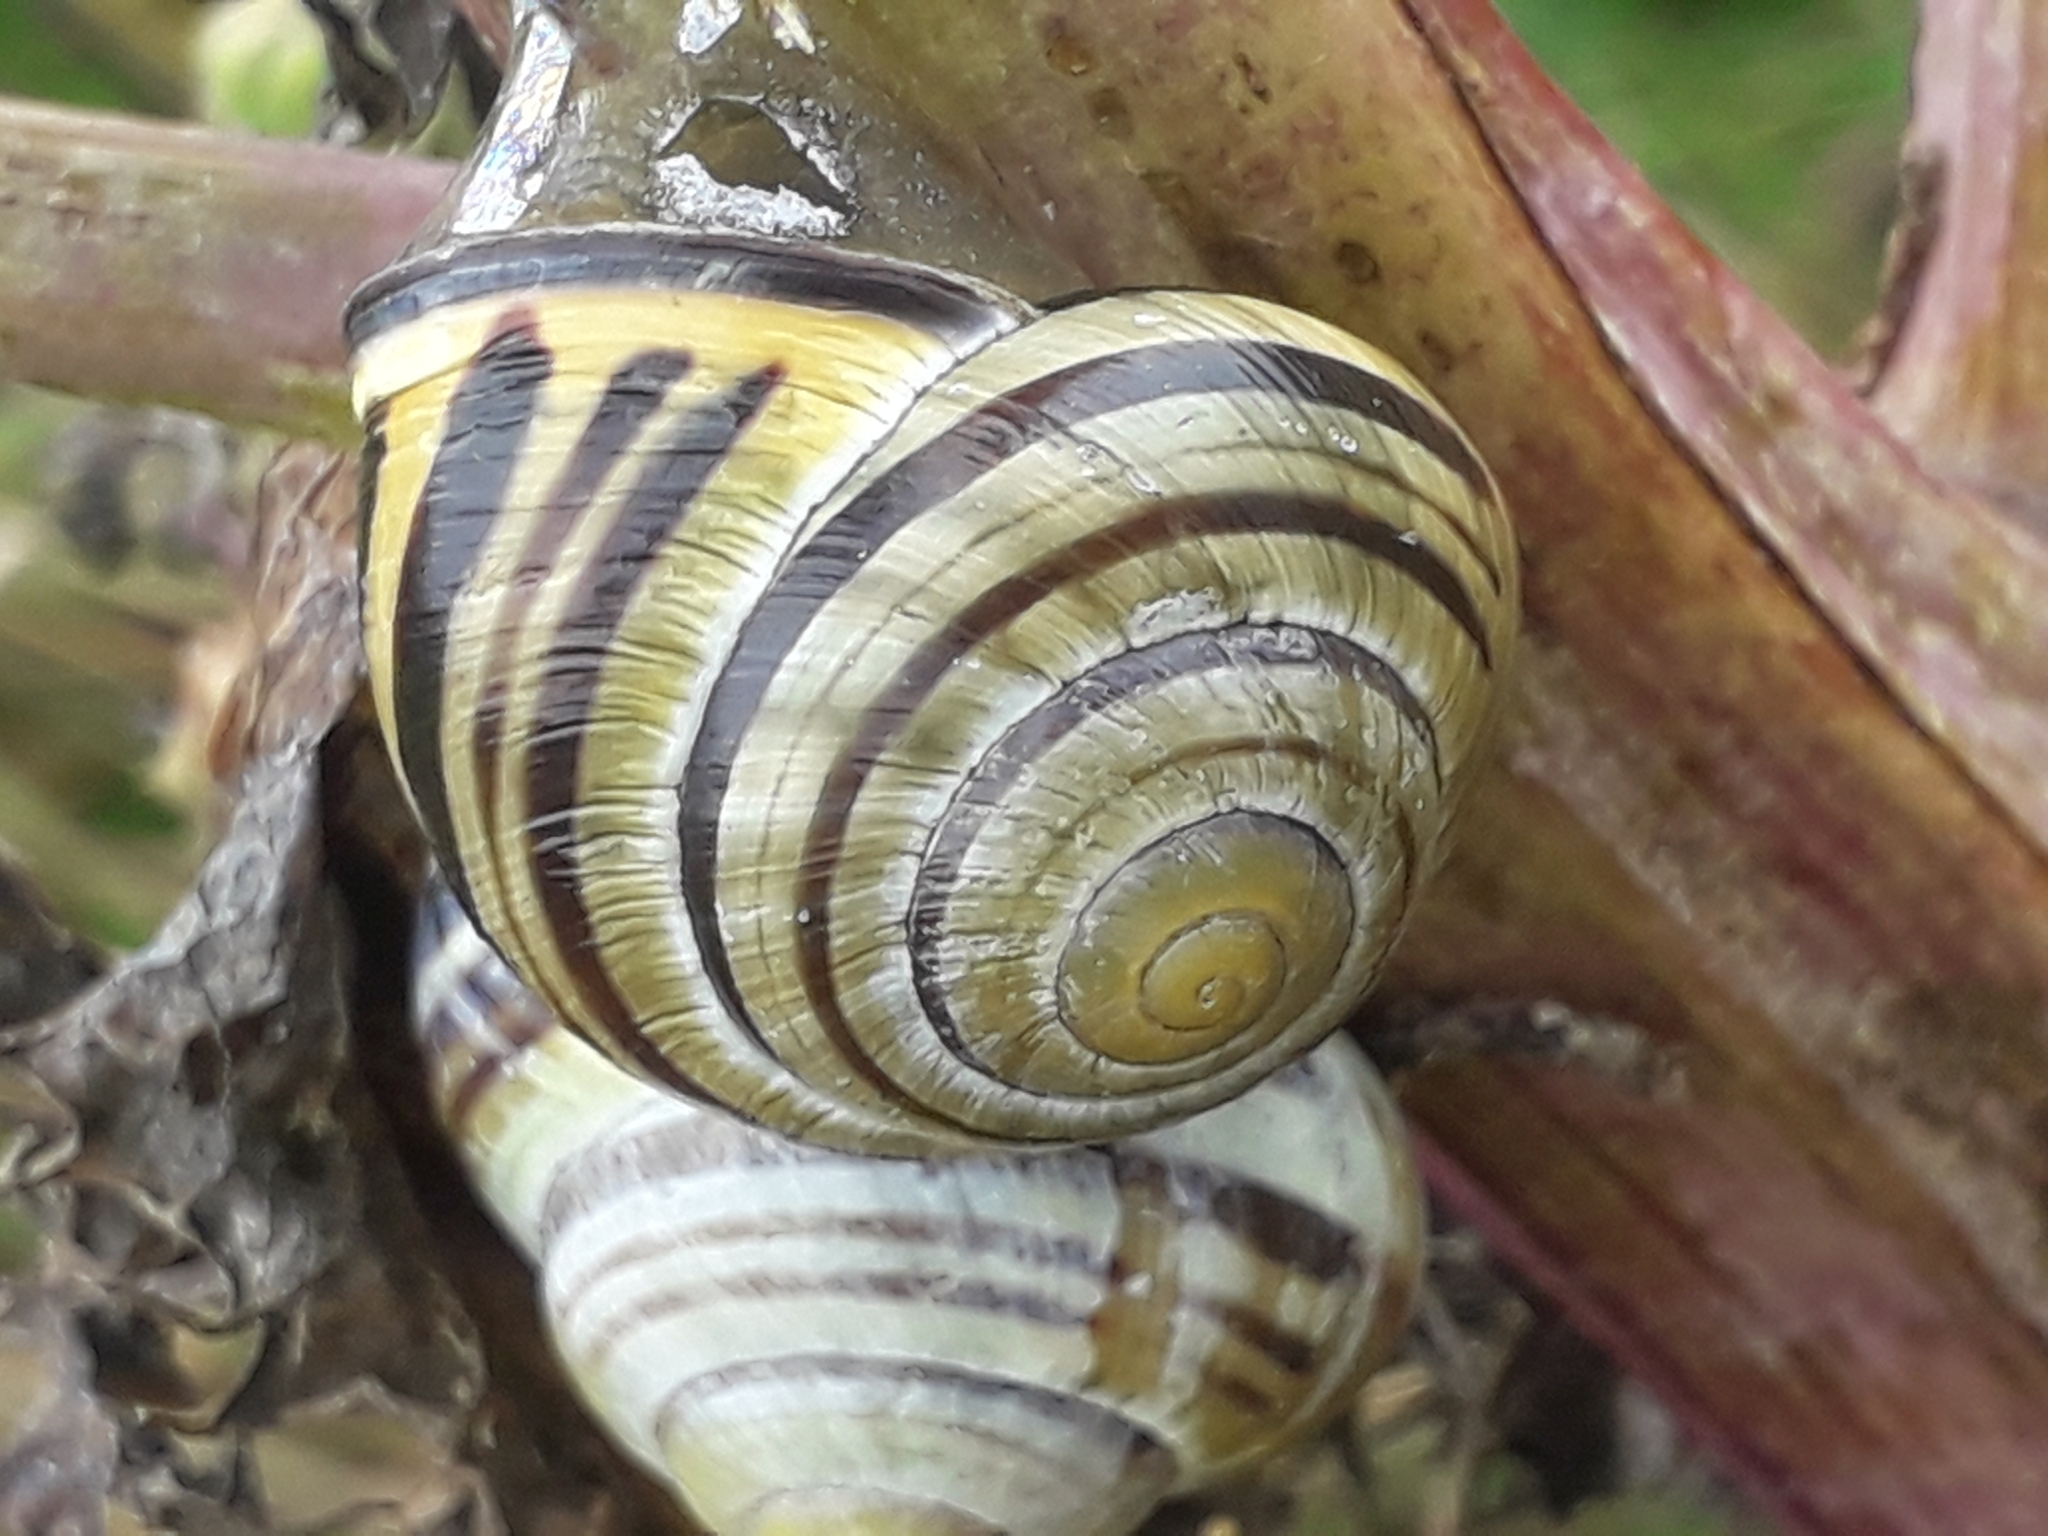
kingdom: Animalia
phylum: Mollusca
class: Gastropoda
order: Stylommatophora
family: Helicidae
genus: Cepaea
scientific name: Cepaea nemoralis
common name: Grovesnail
